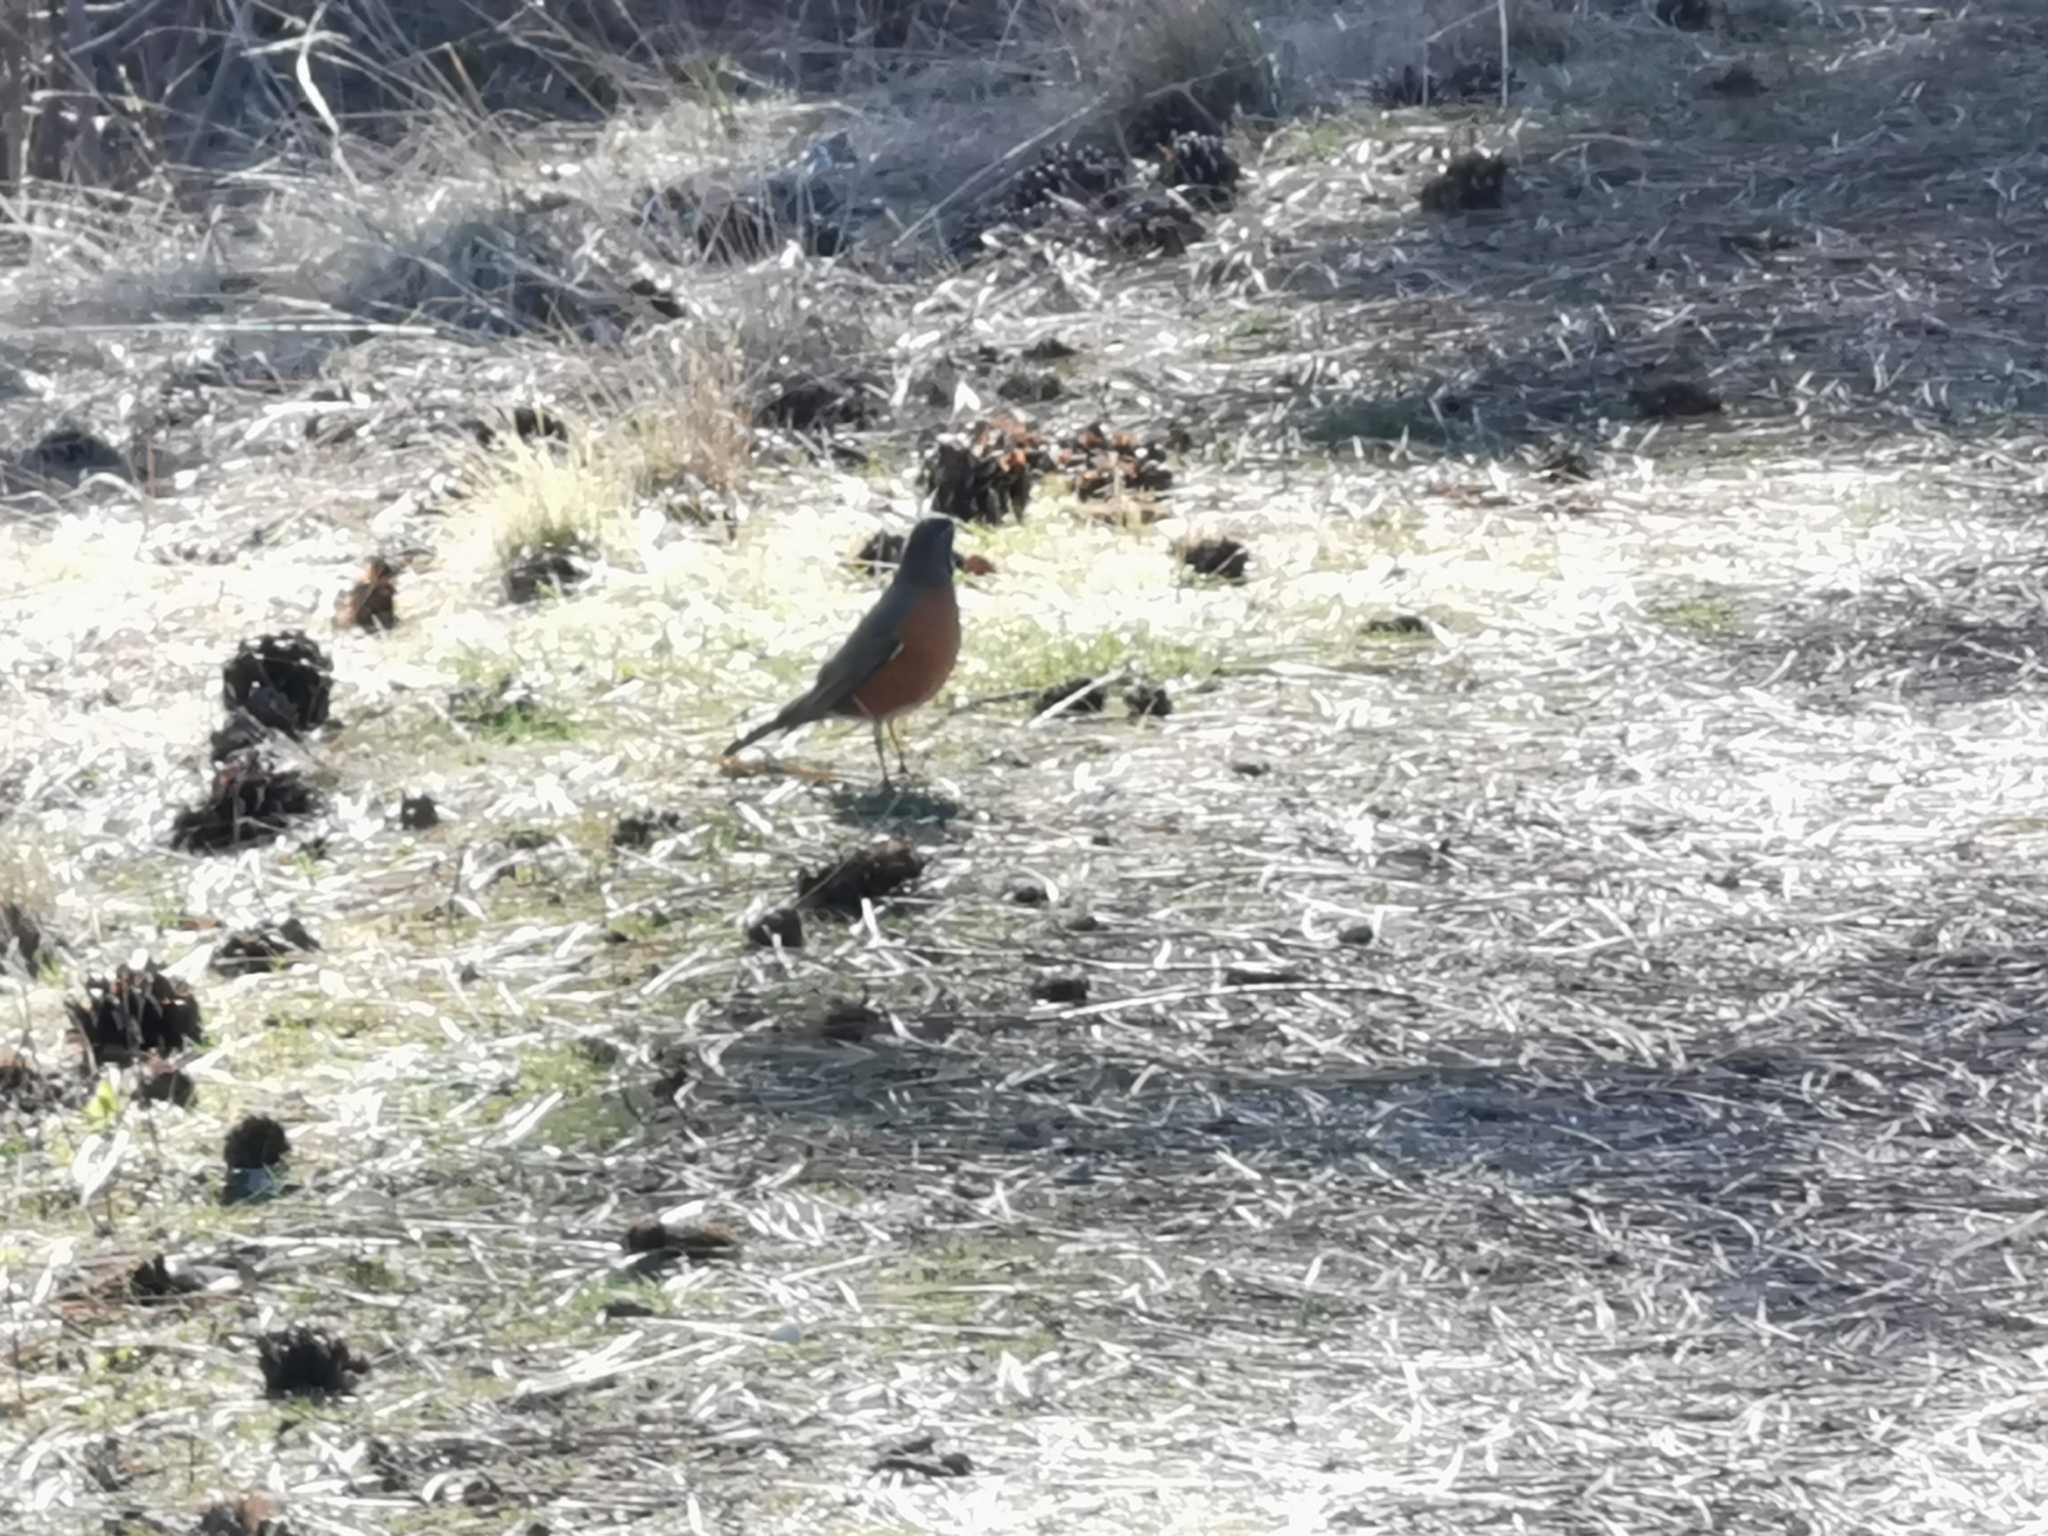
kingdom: Animalia
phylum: Chordata
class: Aves
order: Passeriformes
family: Turdidae
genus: Turdus
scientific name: Turdus migratorius
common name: American robin
